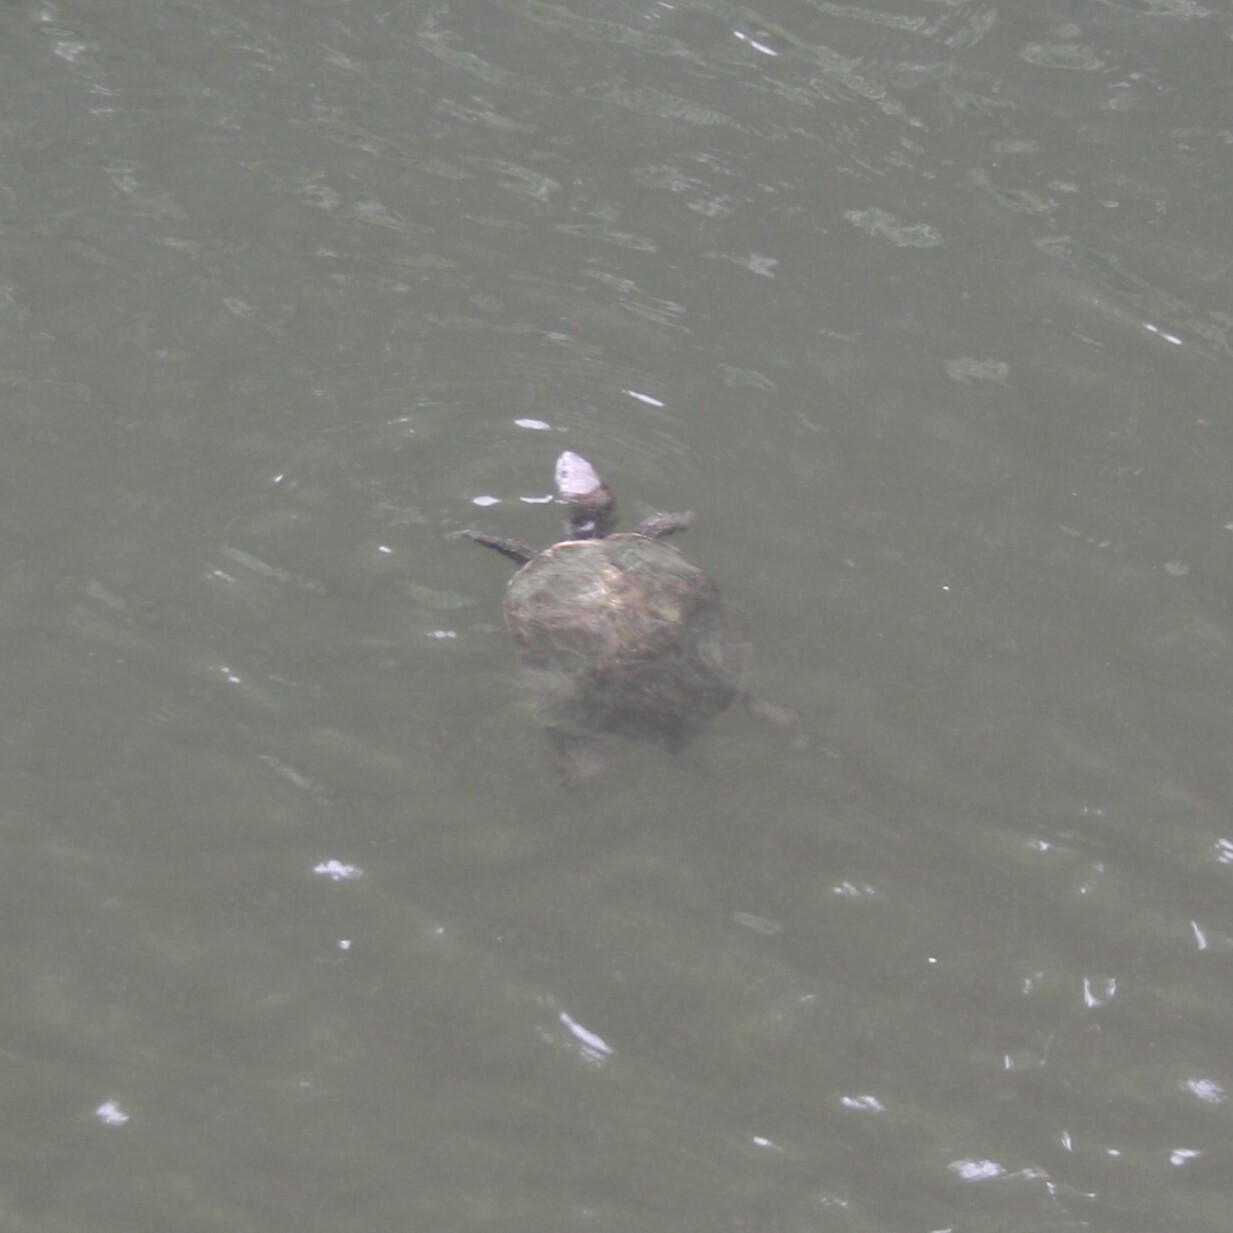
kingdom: Animalia
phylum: Chordata
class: Testudines
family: Geoemydidae
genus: Mauremys
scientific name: Mauremys rivulata
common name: Western caspian turtle
